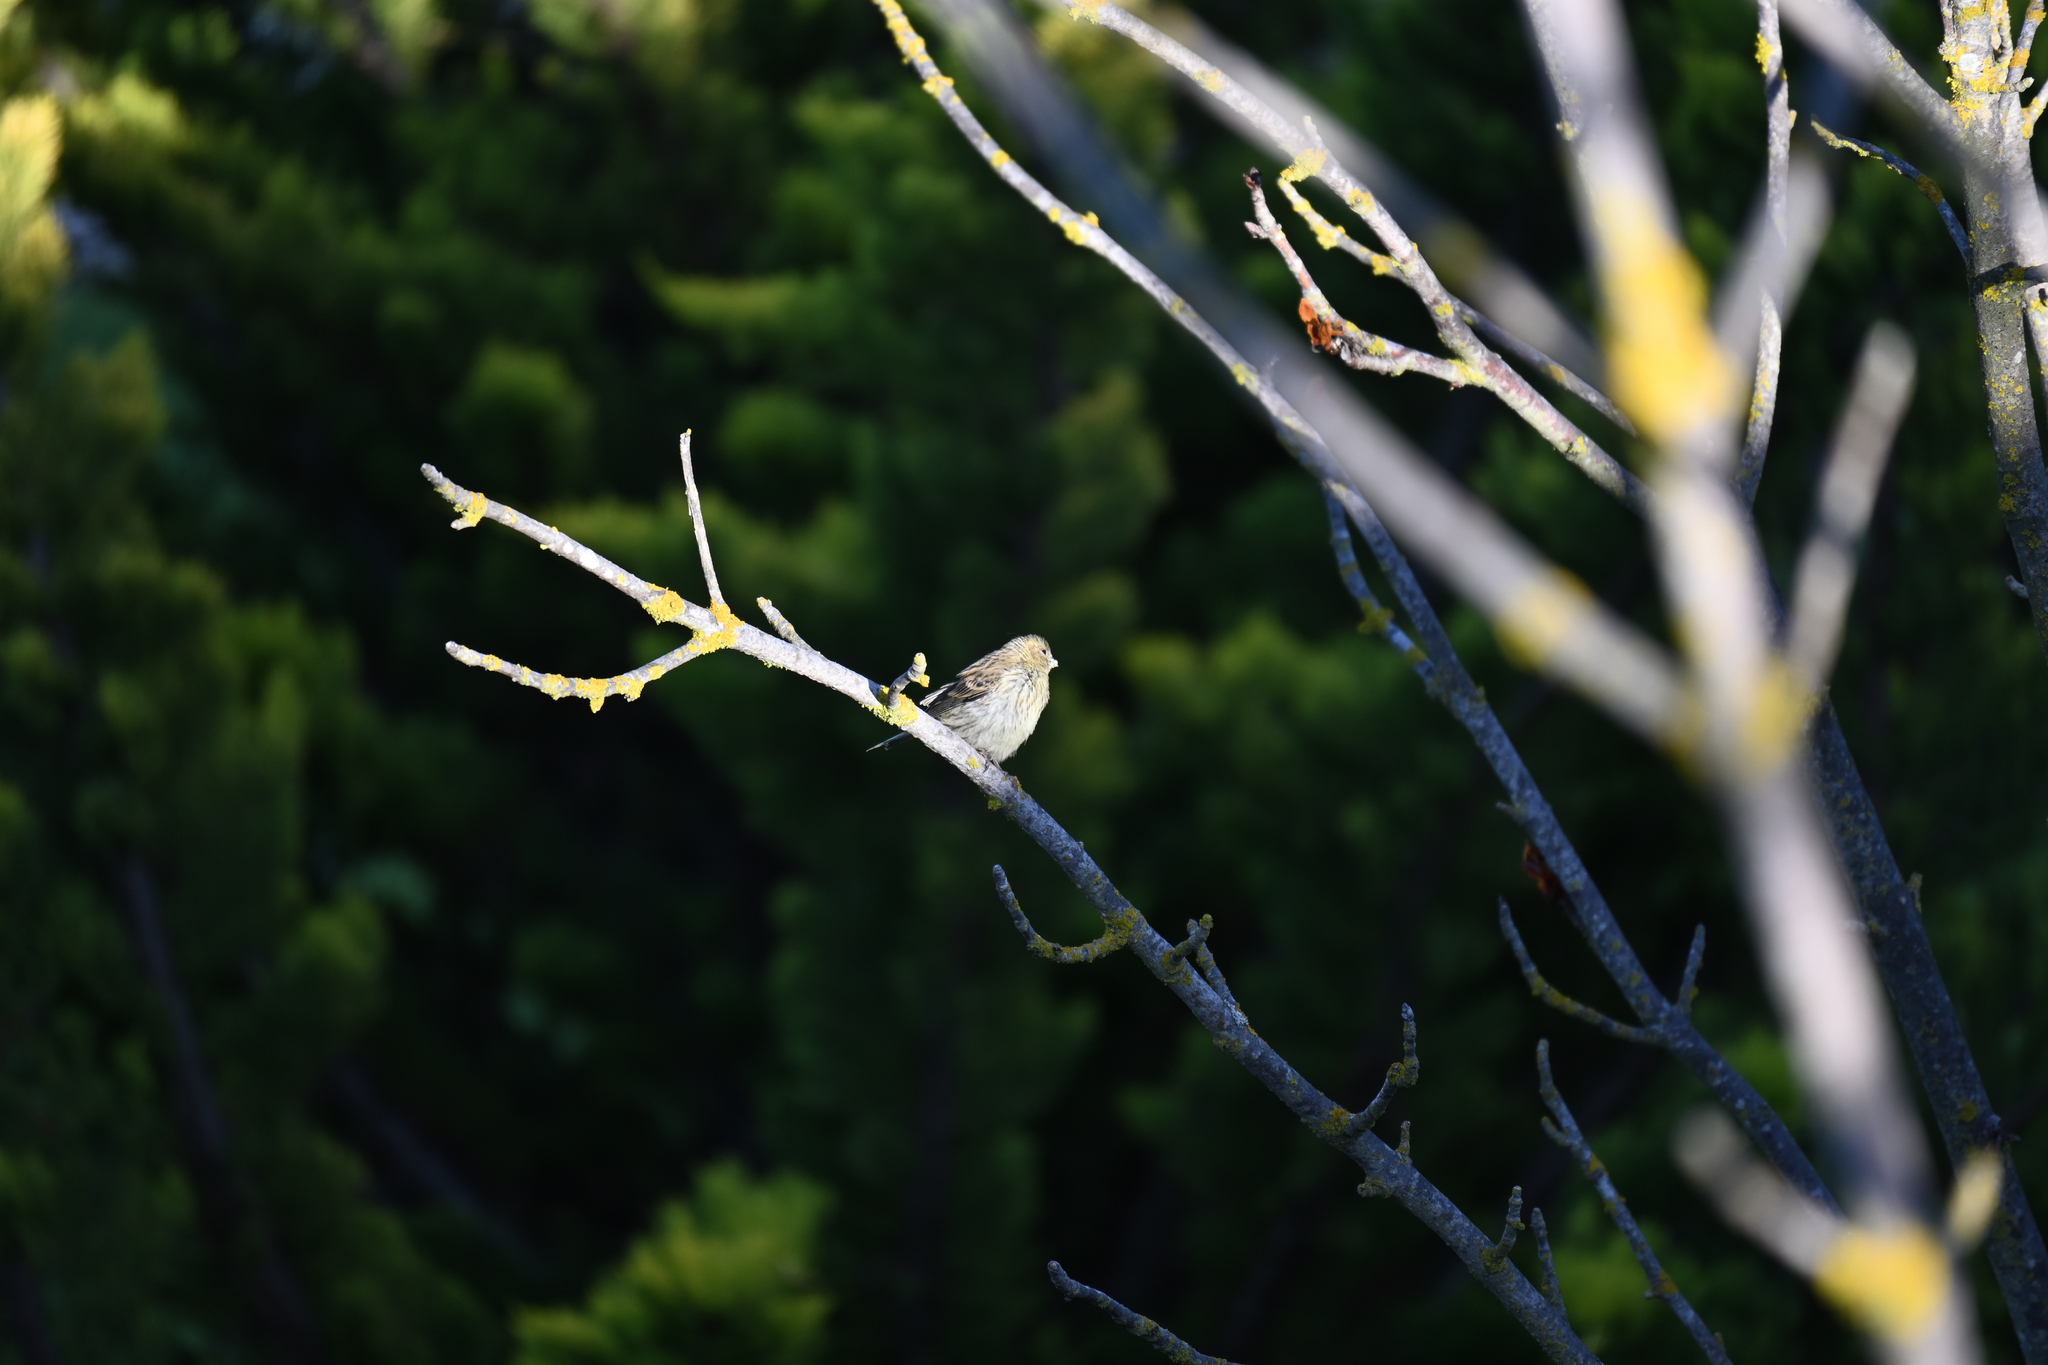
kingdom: Animalia
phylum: Chordata
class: Aves
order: Passeriformes
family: Fringillidae
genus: Serinus
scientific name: Serinus serinus
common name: European serin
